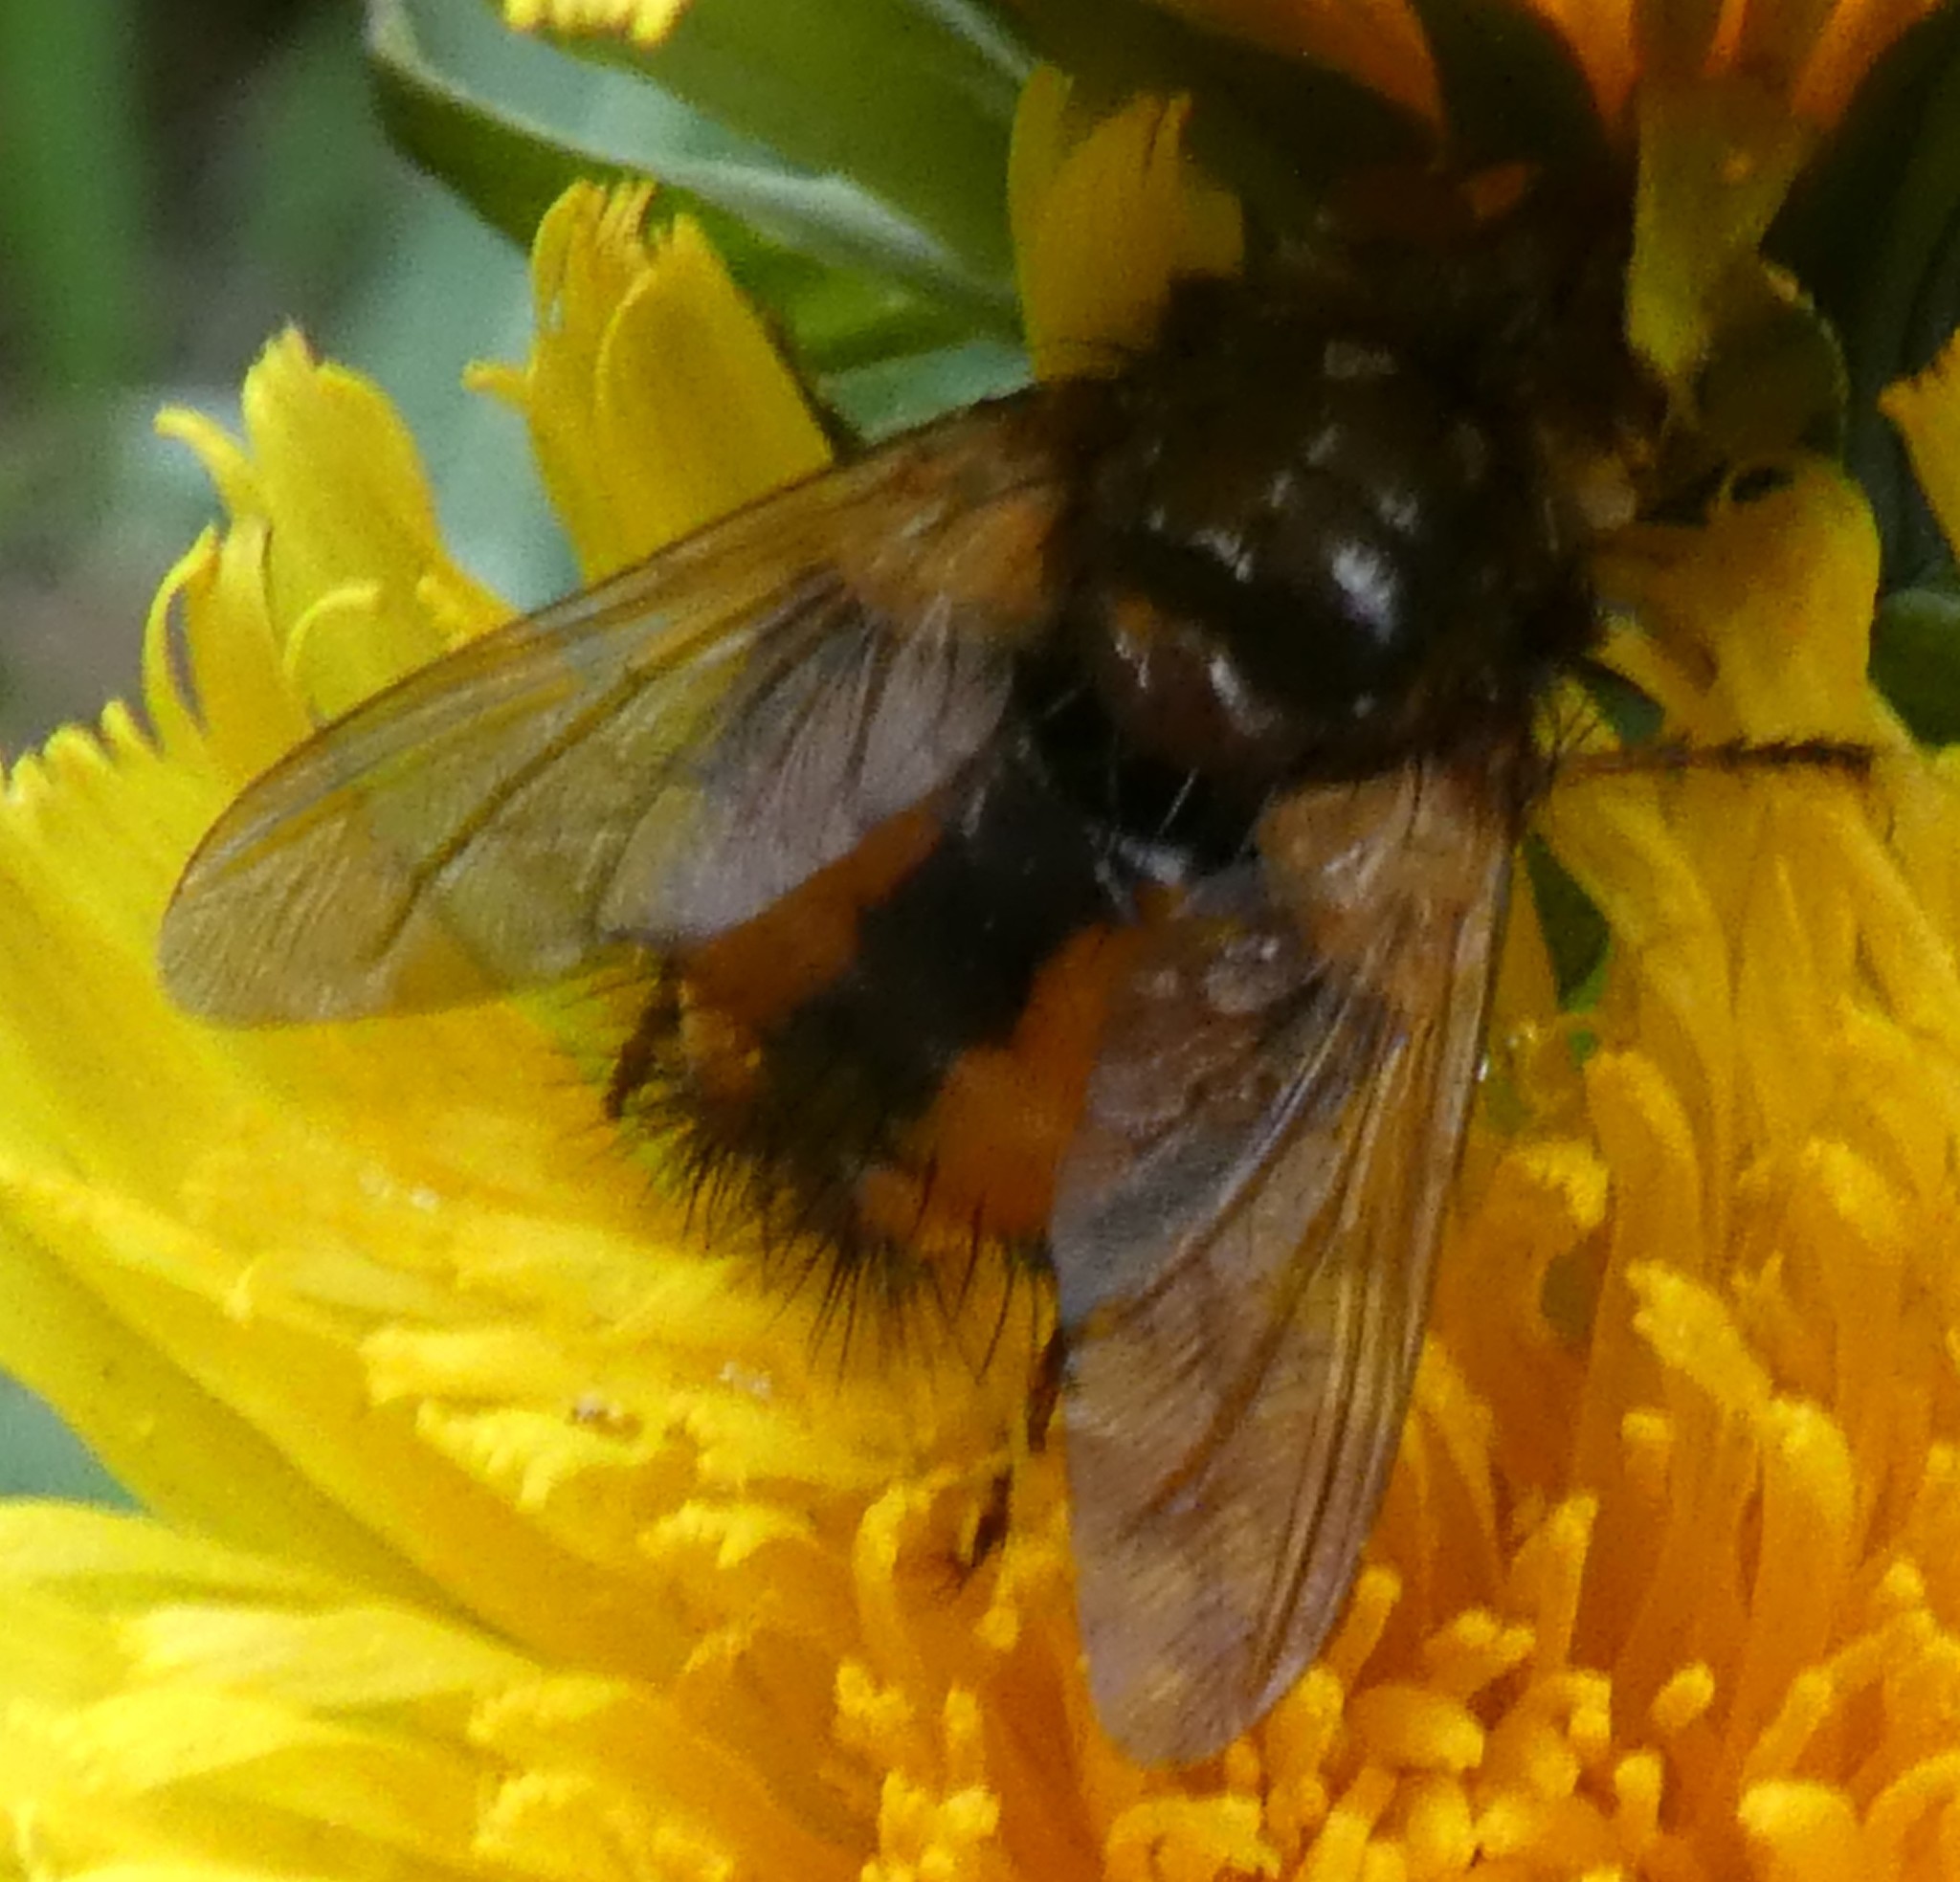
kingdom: Animalia
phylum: Arthropoda
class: Insecta
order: Diptera
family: Tachinidae
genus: Tachina
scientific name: Tachina fera
